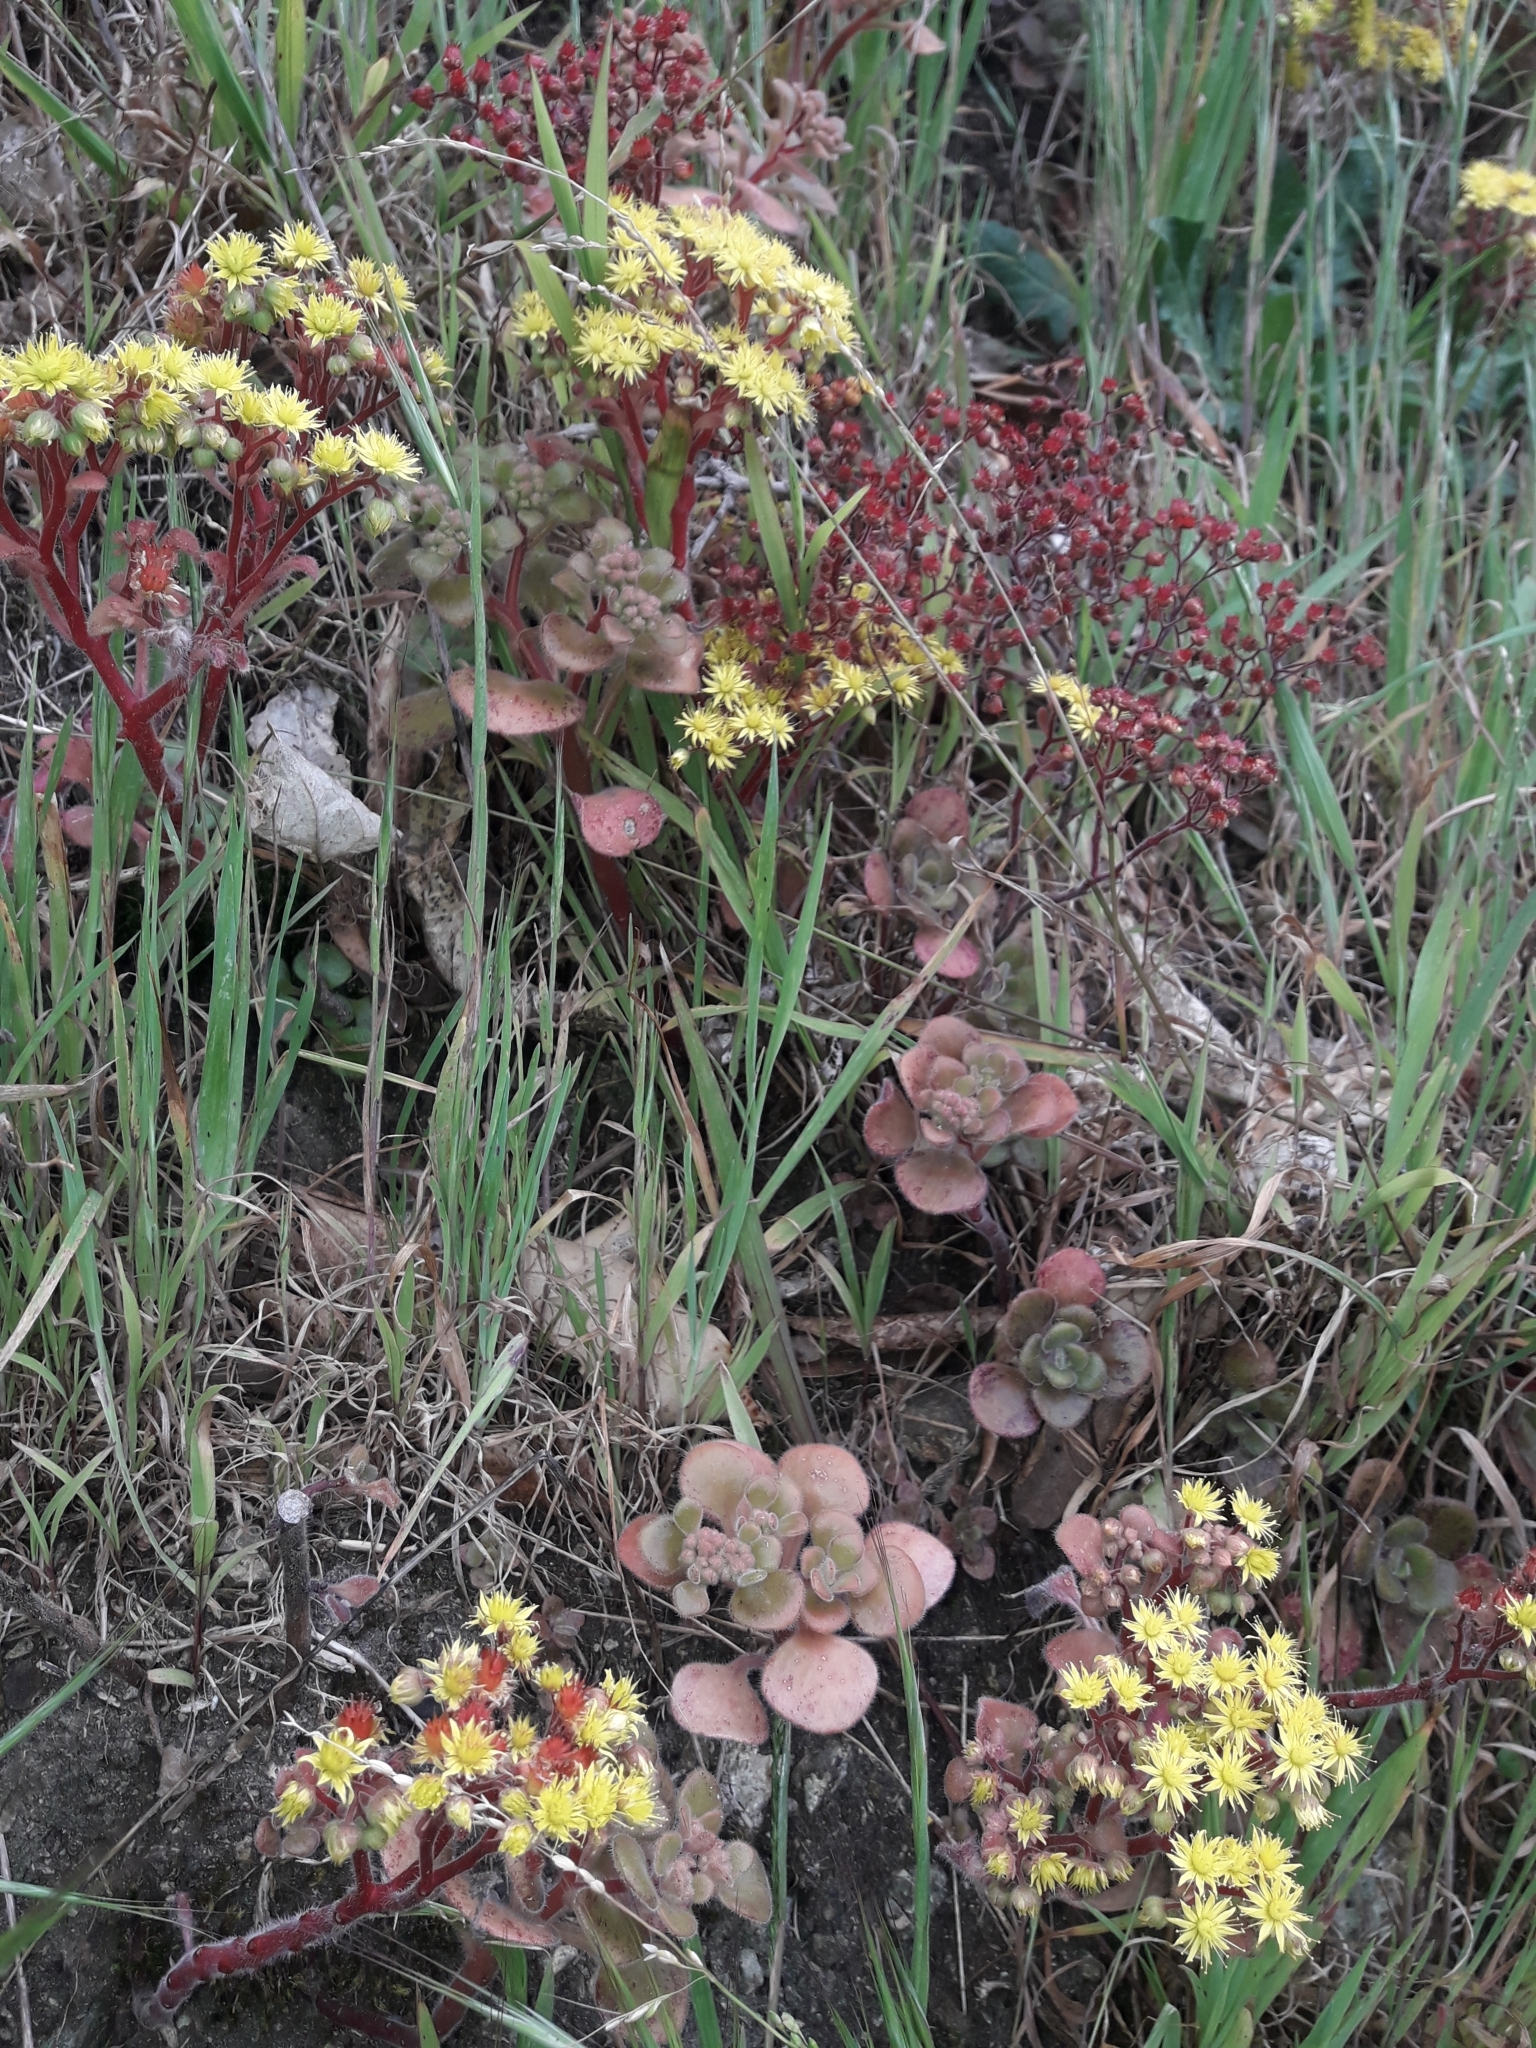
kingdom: Plantae
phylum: Tracheophyta
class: Magnoliopsida
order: Saxifragales
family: Crassulaceae
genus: Aichryson
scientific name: Aichryson laxum
